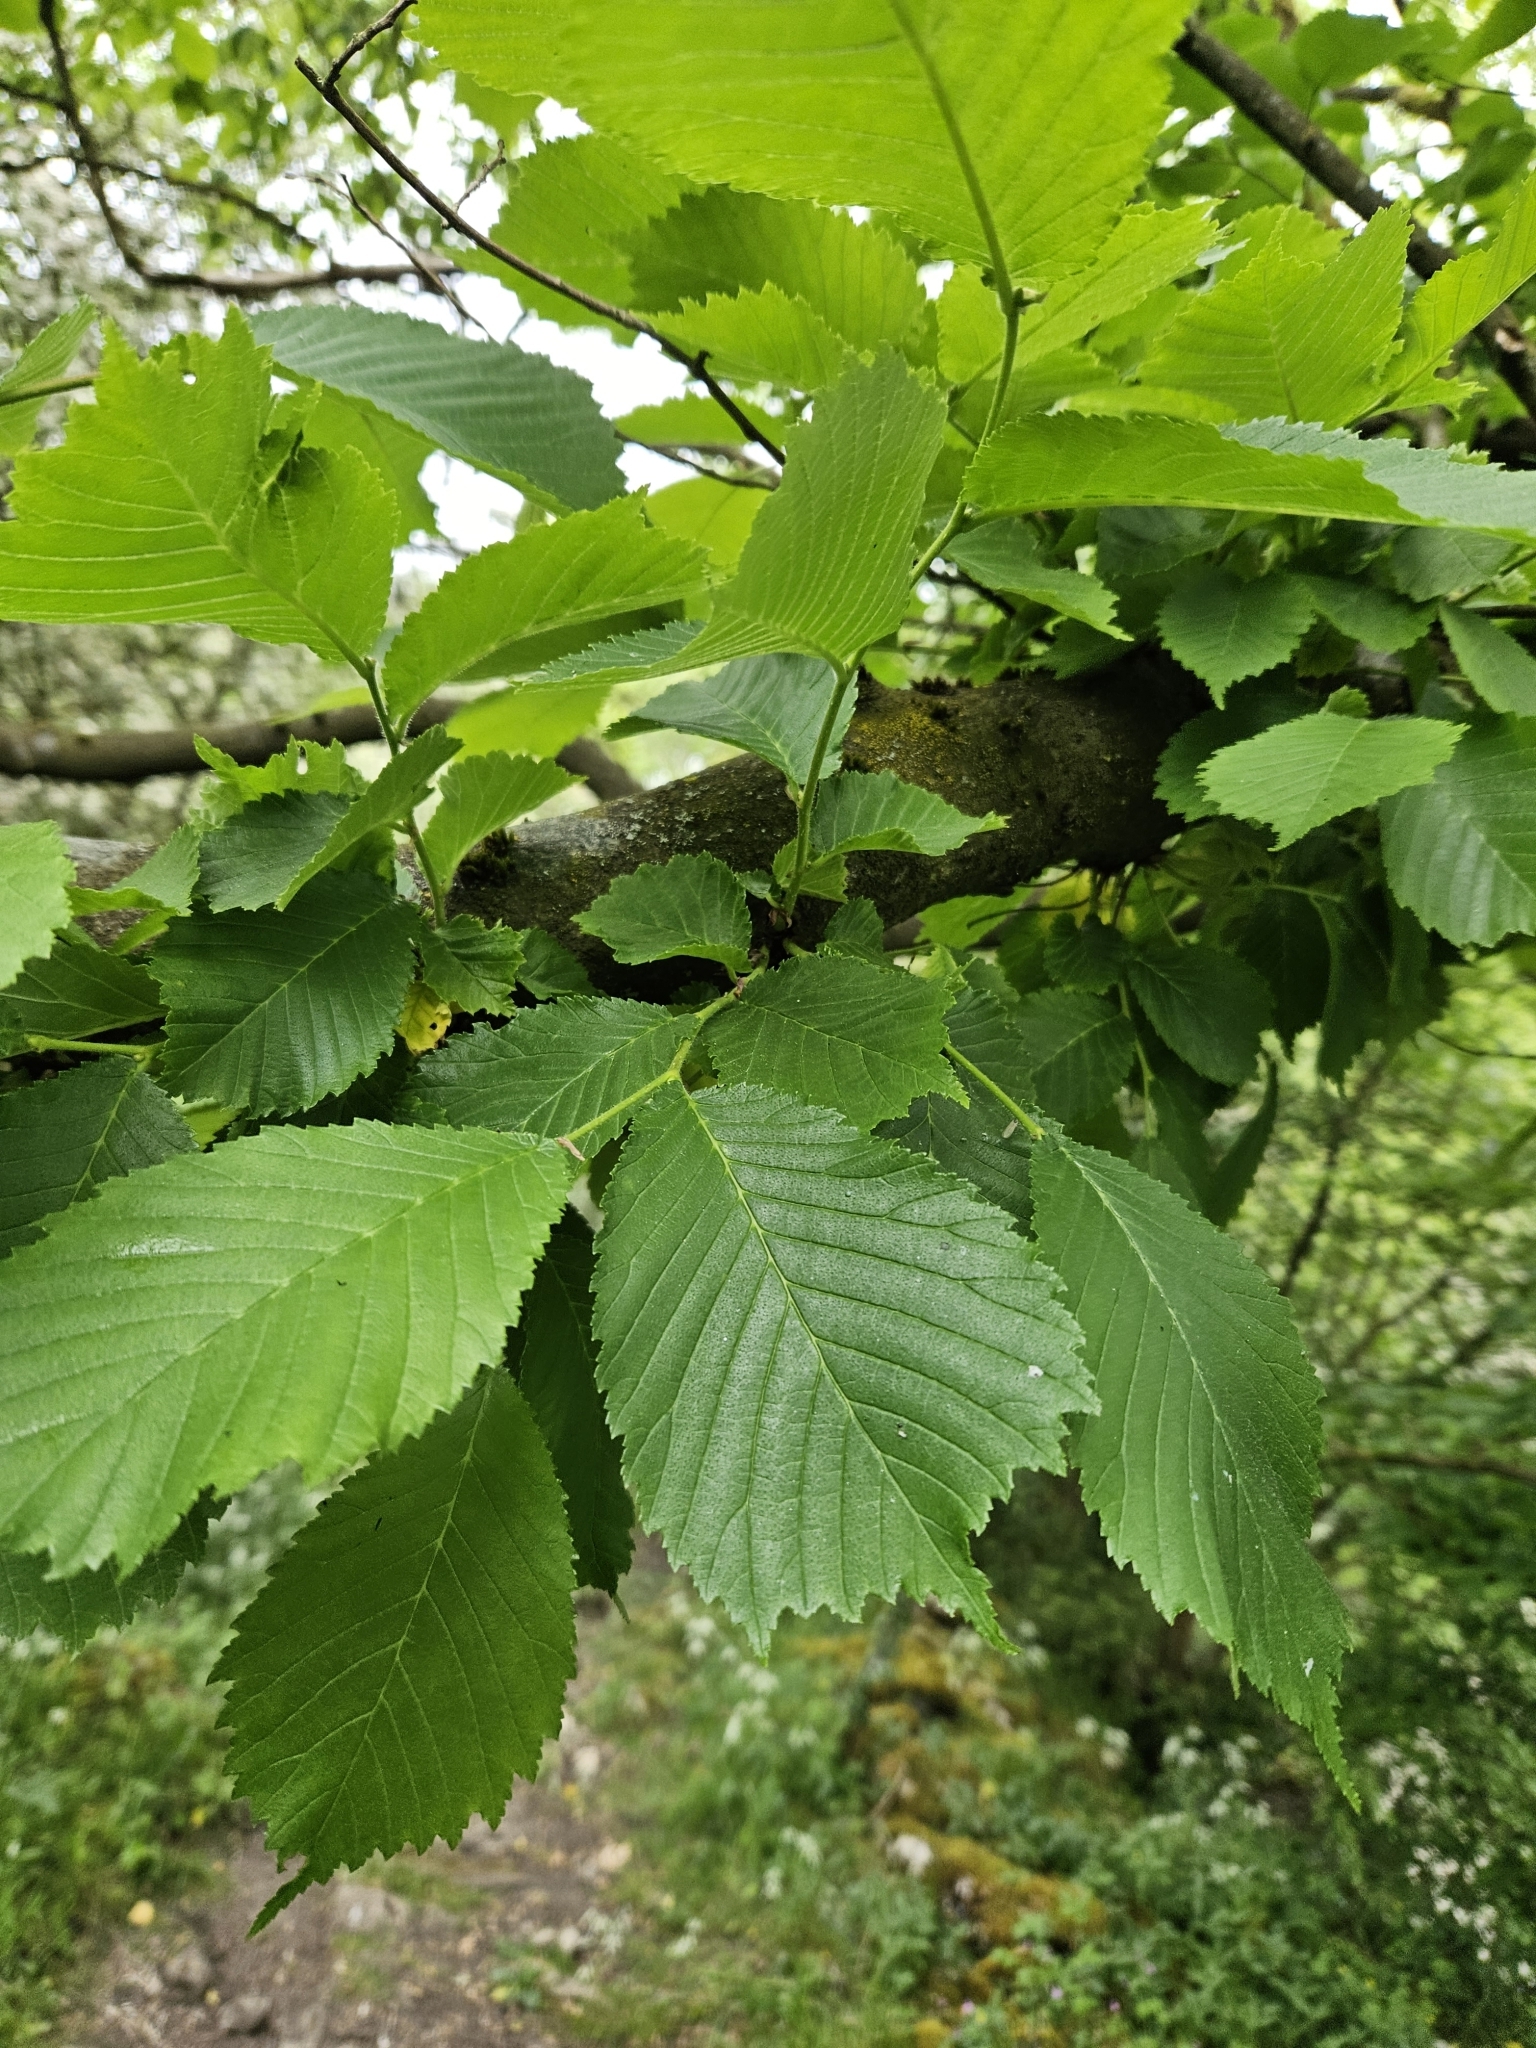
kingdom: Plantae
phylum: Tracheophyta
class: Magnoliopsida
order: Rosales
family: Ulmaceae
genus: Ulmus
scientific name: Ulmus glabra
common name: Wych elm
